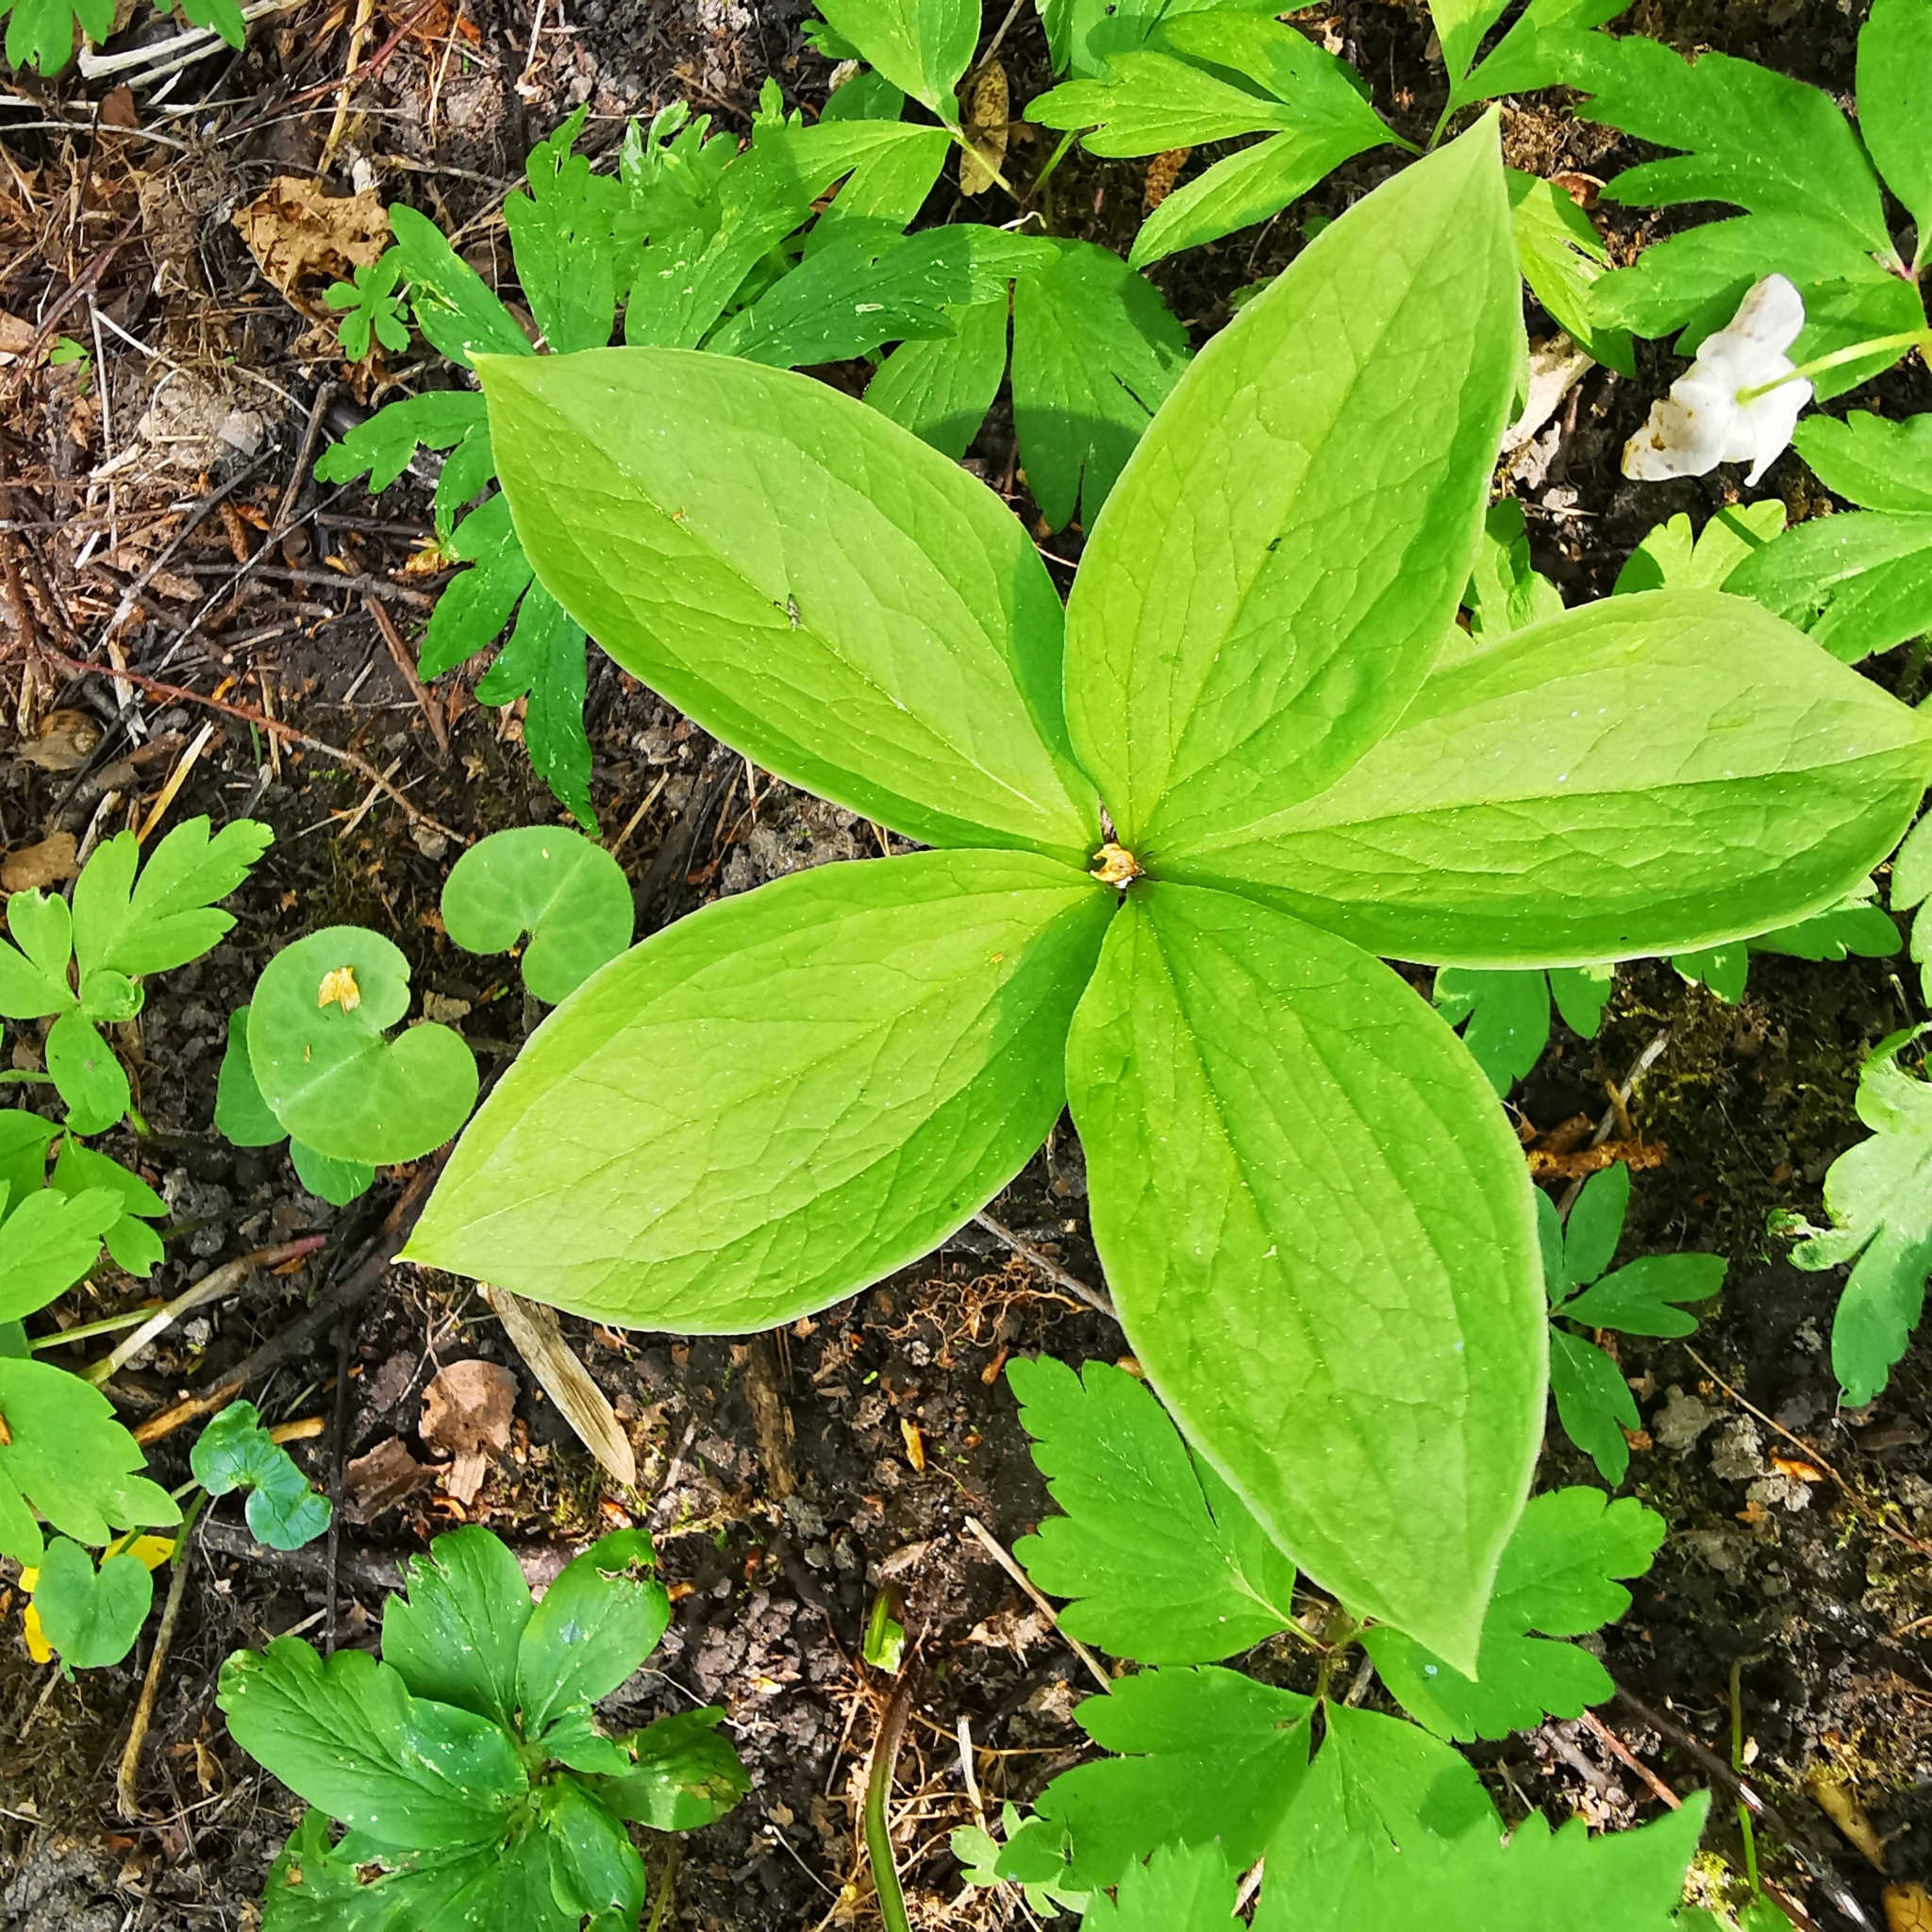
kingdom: Plantae
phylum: Tracheophyta
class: Liliopsida
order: Liliales
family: Melanthiaceae
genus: Paris
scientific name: Paris quadrifolia
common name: Herb-paris
